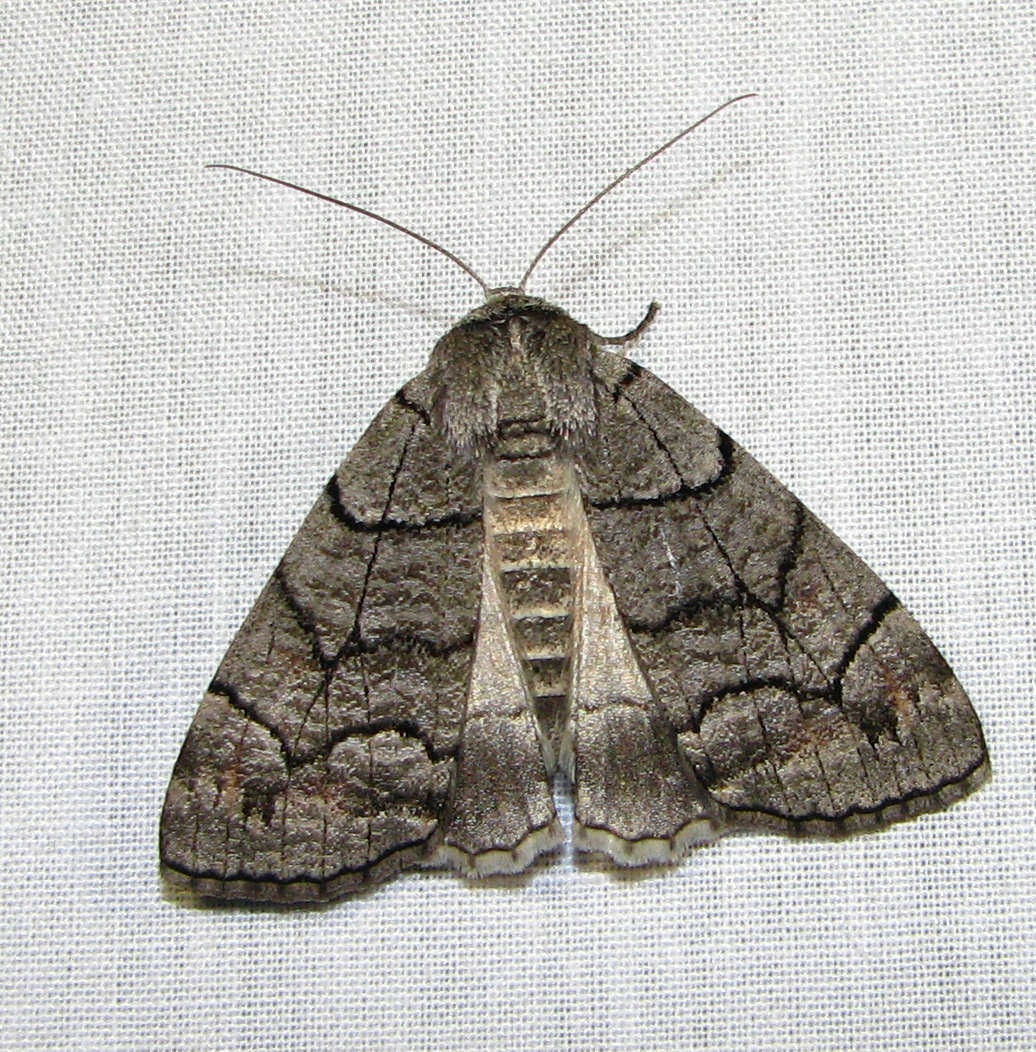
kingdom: Animalia
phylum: Arthropoda
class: Insecta
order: Lepidoptera
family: Geometridae
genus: Stibaroma
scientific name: Stibaroma
